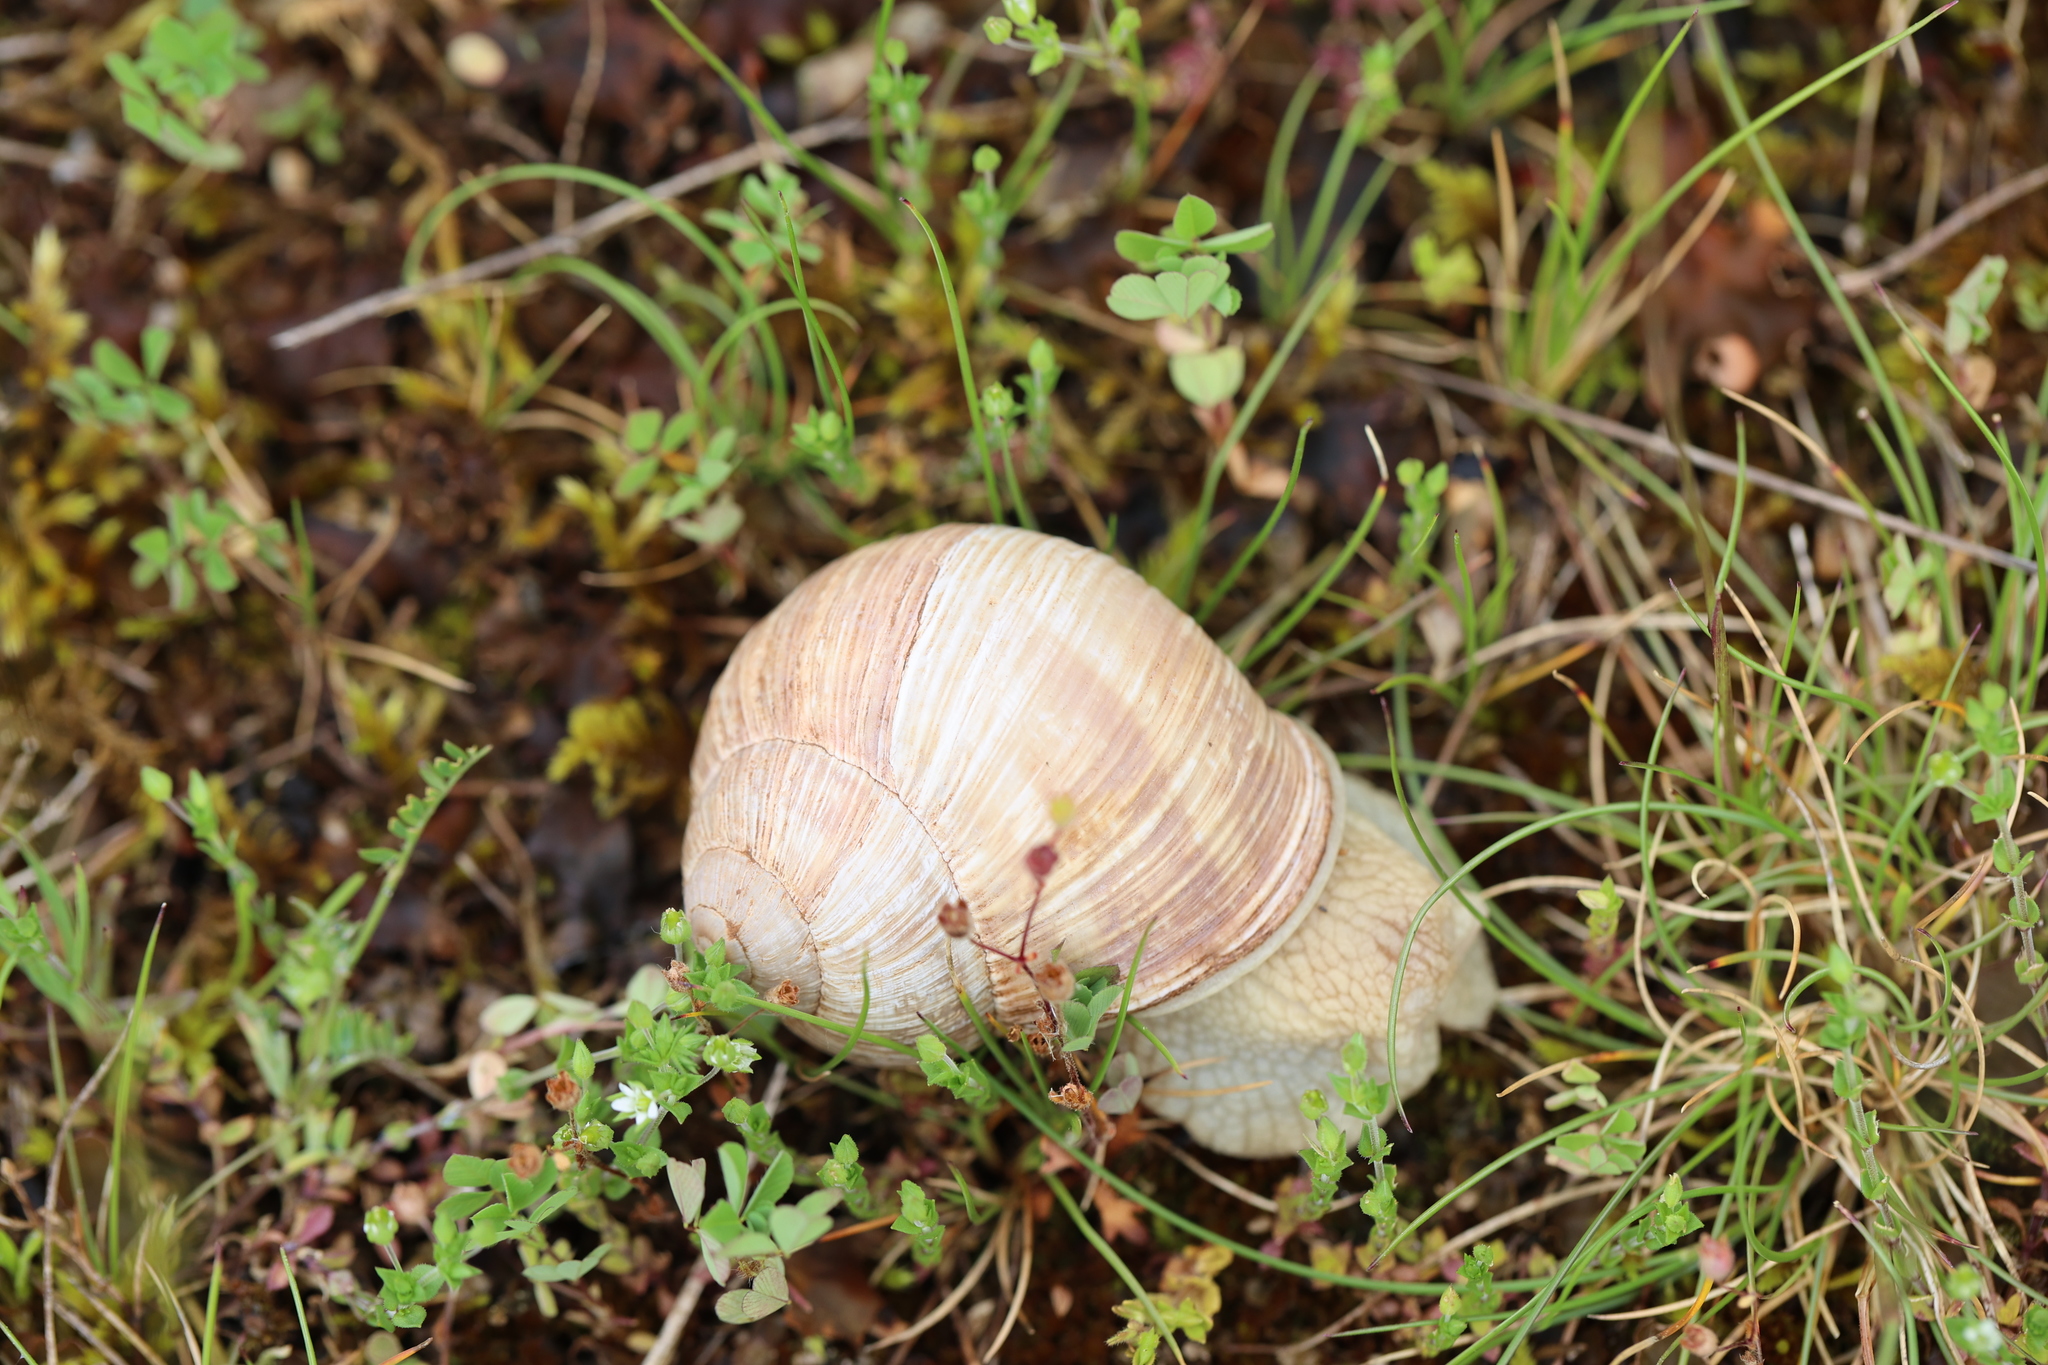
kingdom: Animalia
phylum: Mollusca
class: Gastropoda
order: Stylommatophora
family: Helicidae
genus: Helix
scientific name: Helix pomatia
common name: Roman snail
